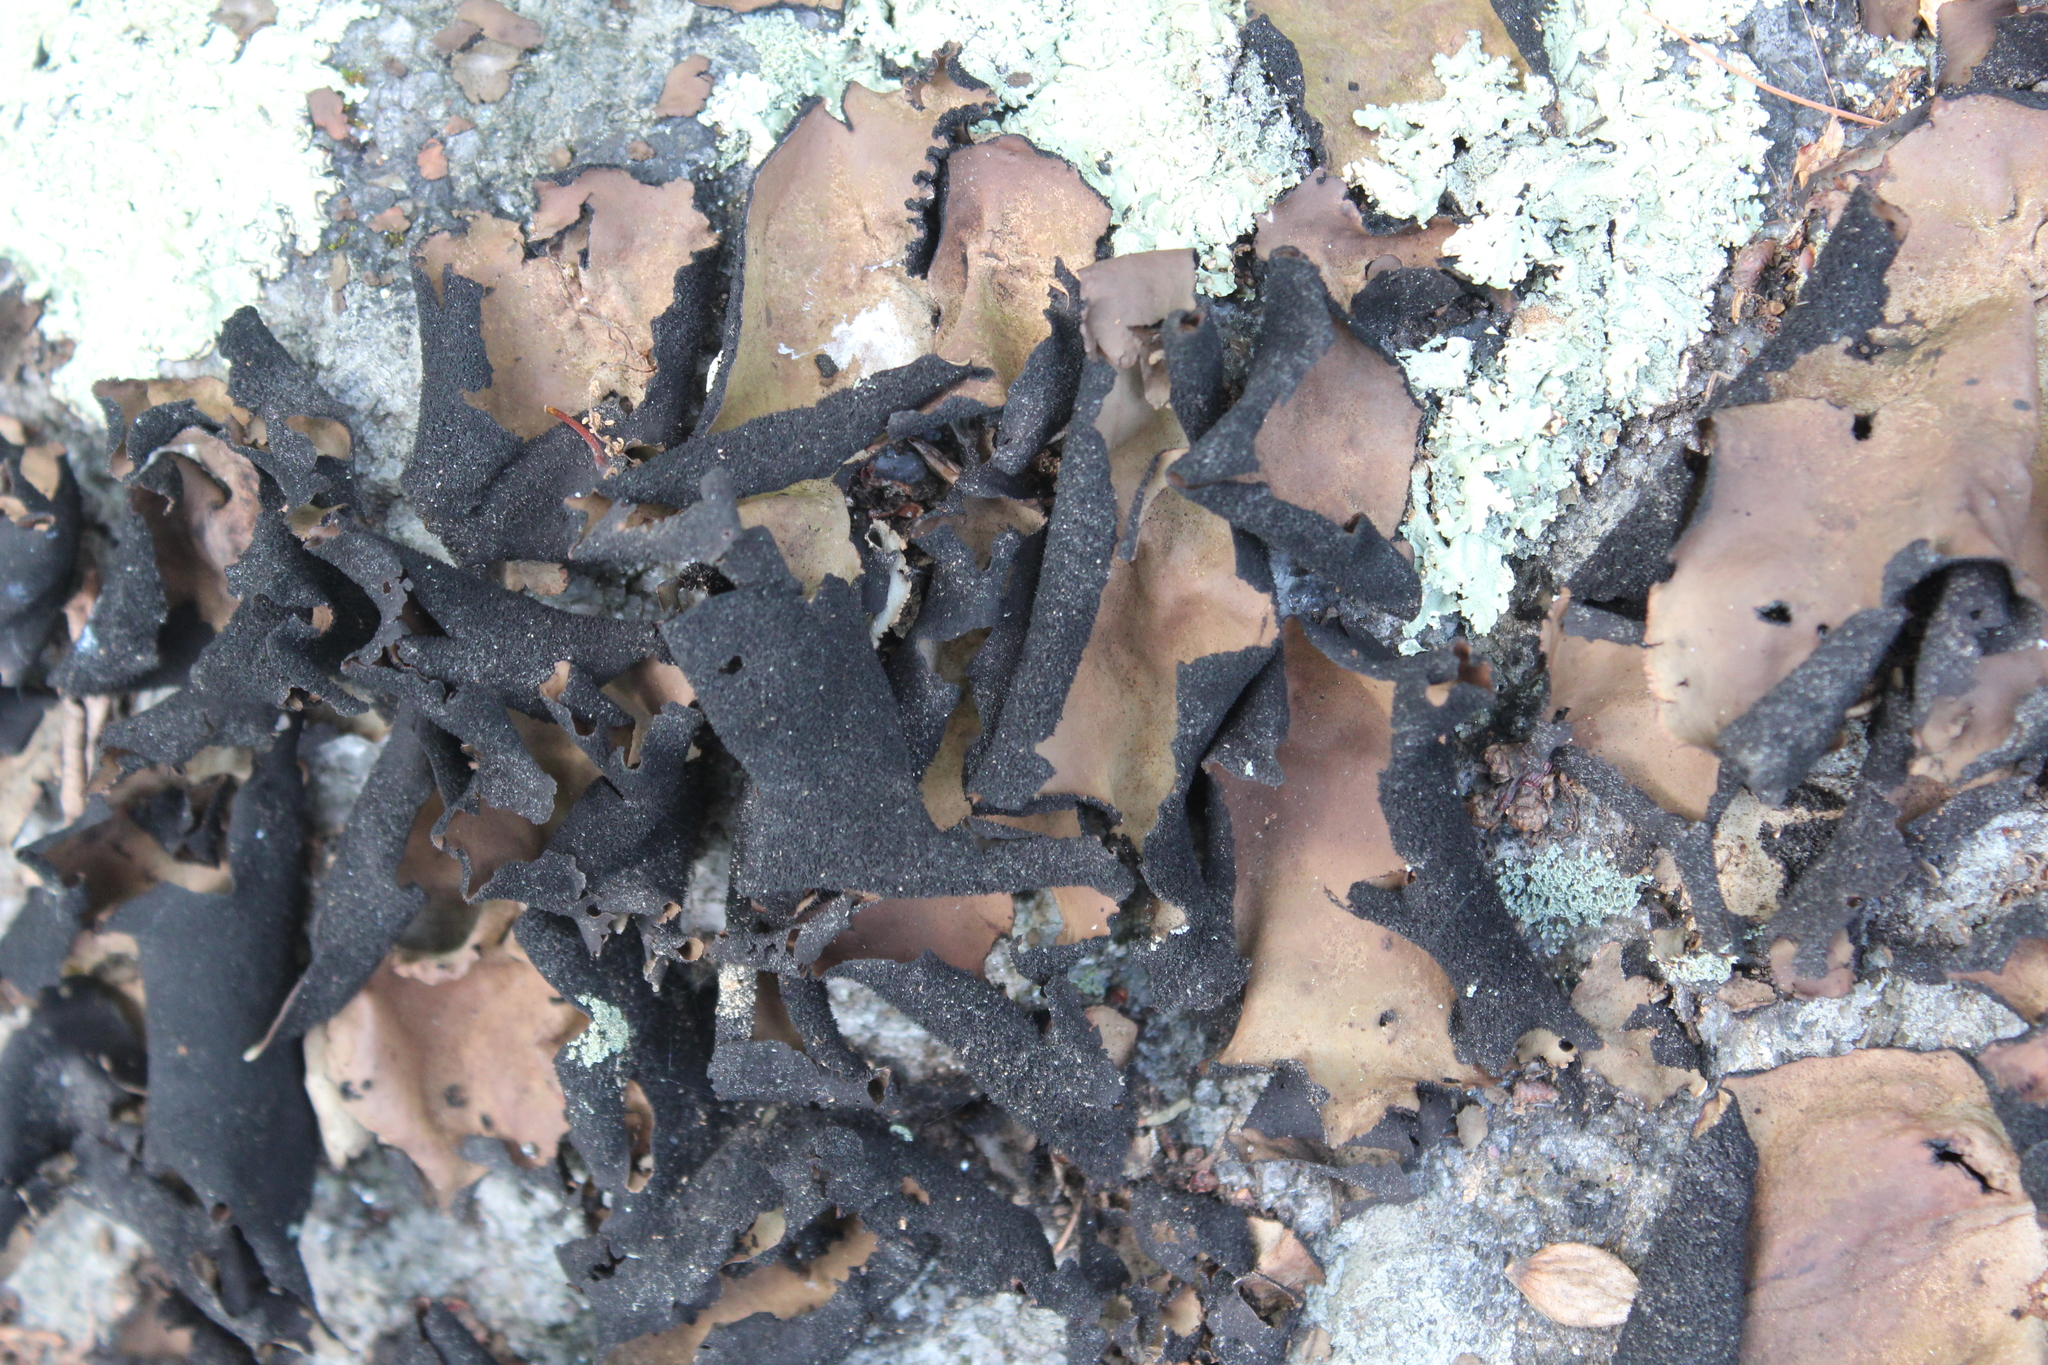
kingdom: Fungi
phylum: Ascomycota
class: Lecanoromycetes
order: Umbilicariales
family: Umbilicariaceae
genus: Umbilicaria
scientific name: Umbilicaria mammulata
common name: Smooth rock tripe
